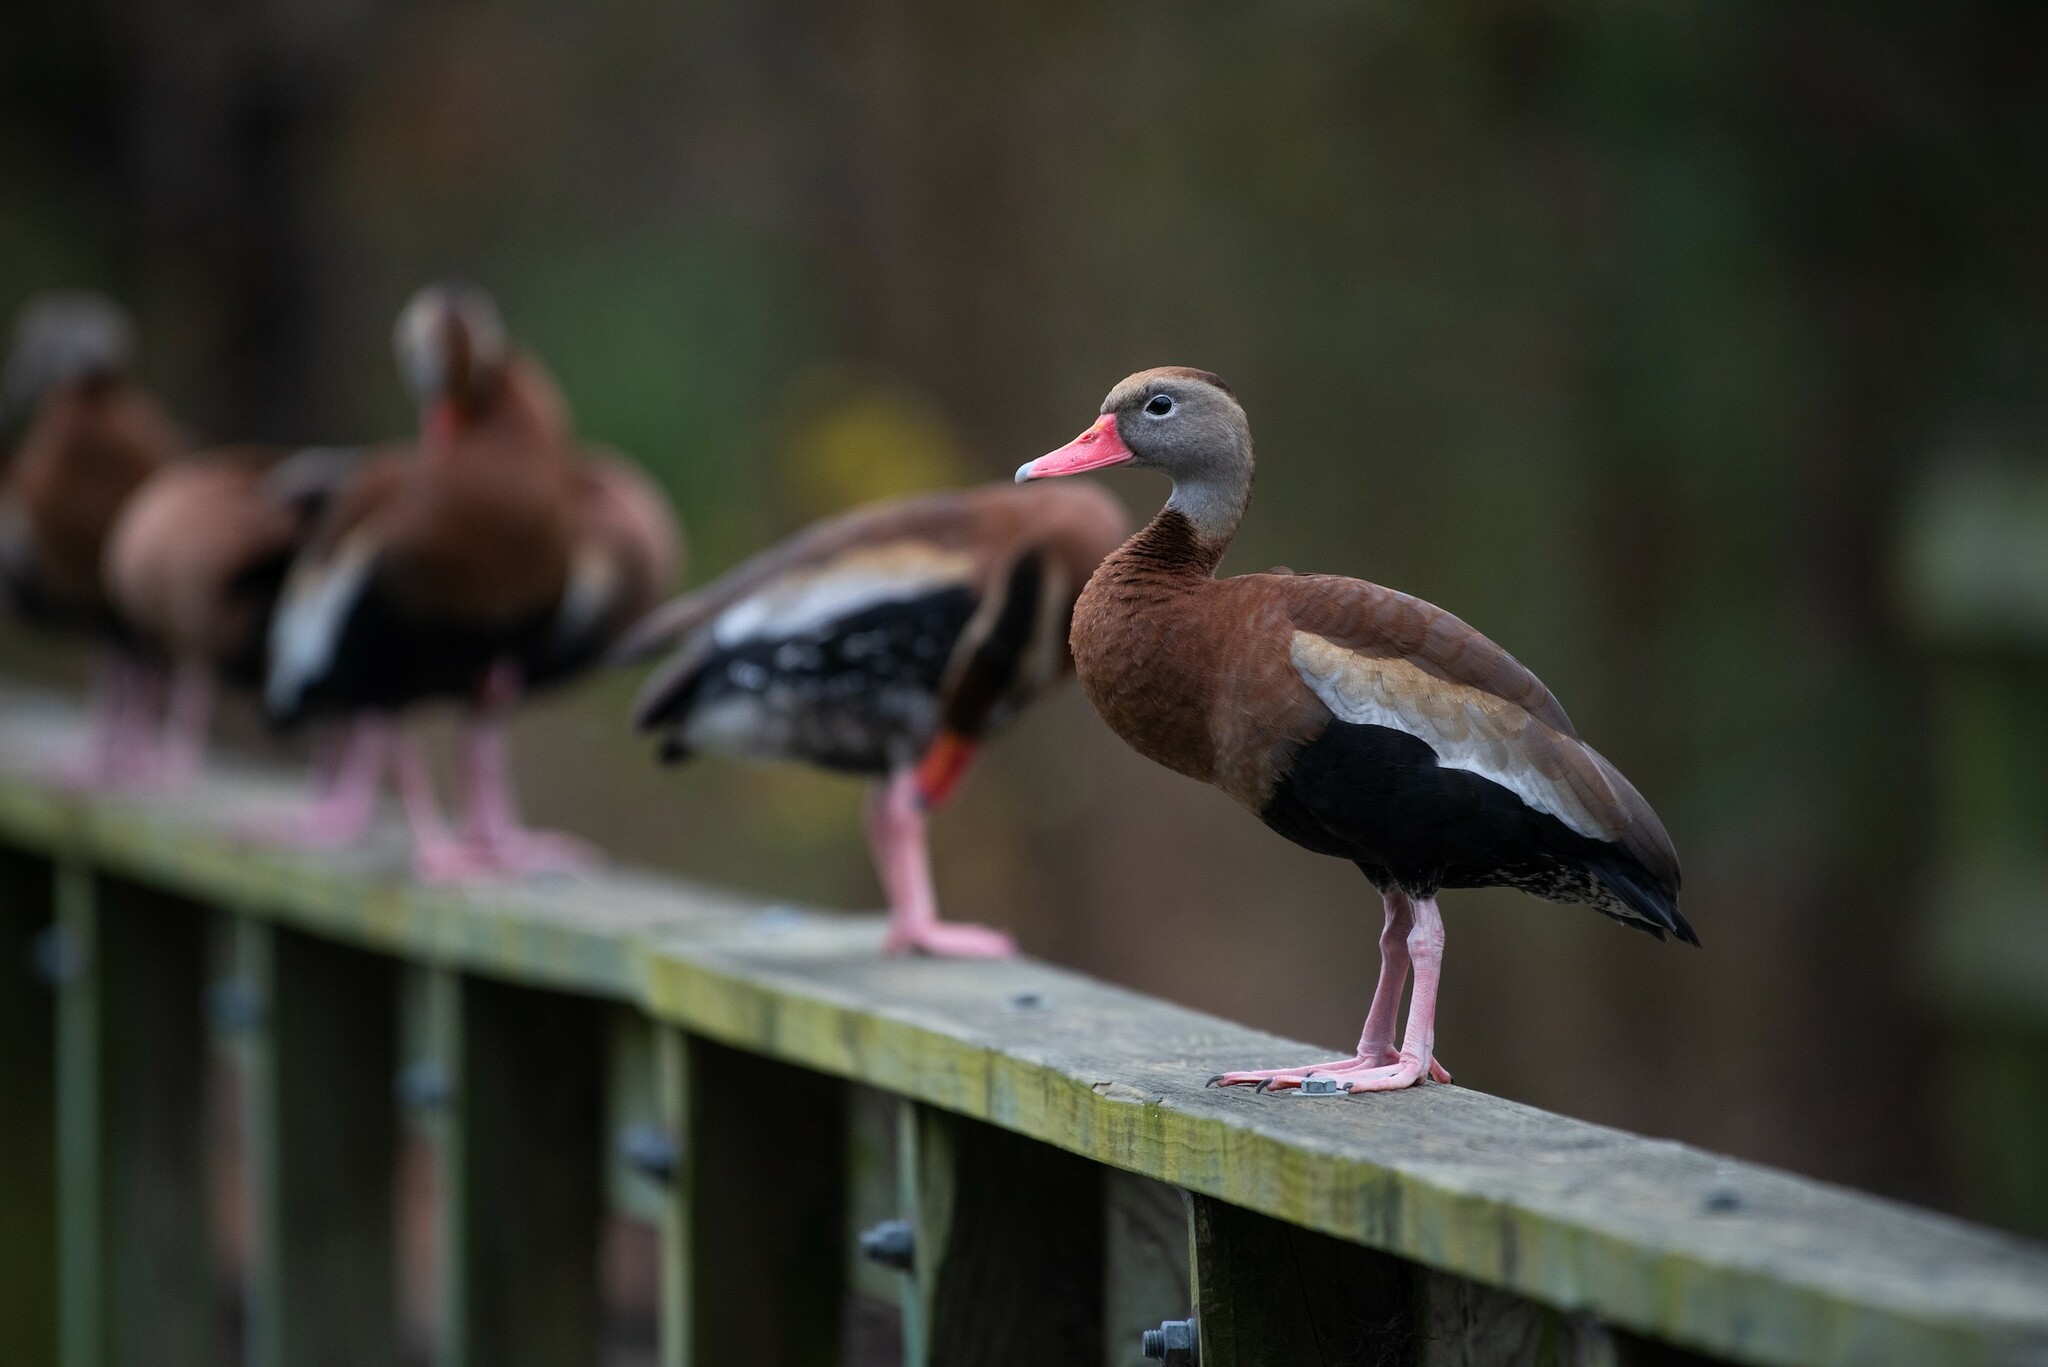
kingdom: Animalia
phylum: Chordata
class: Aves
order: Anseriformes
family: Anatidae
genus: Dendrocygna
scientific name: Dendrocygna autumnalis
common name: Black-bellied whistling duck
